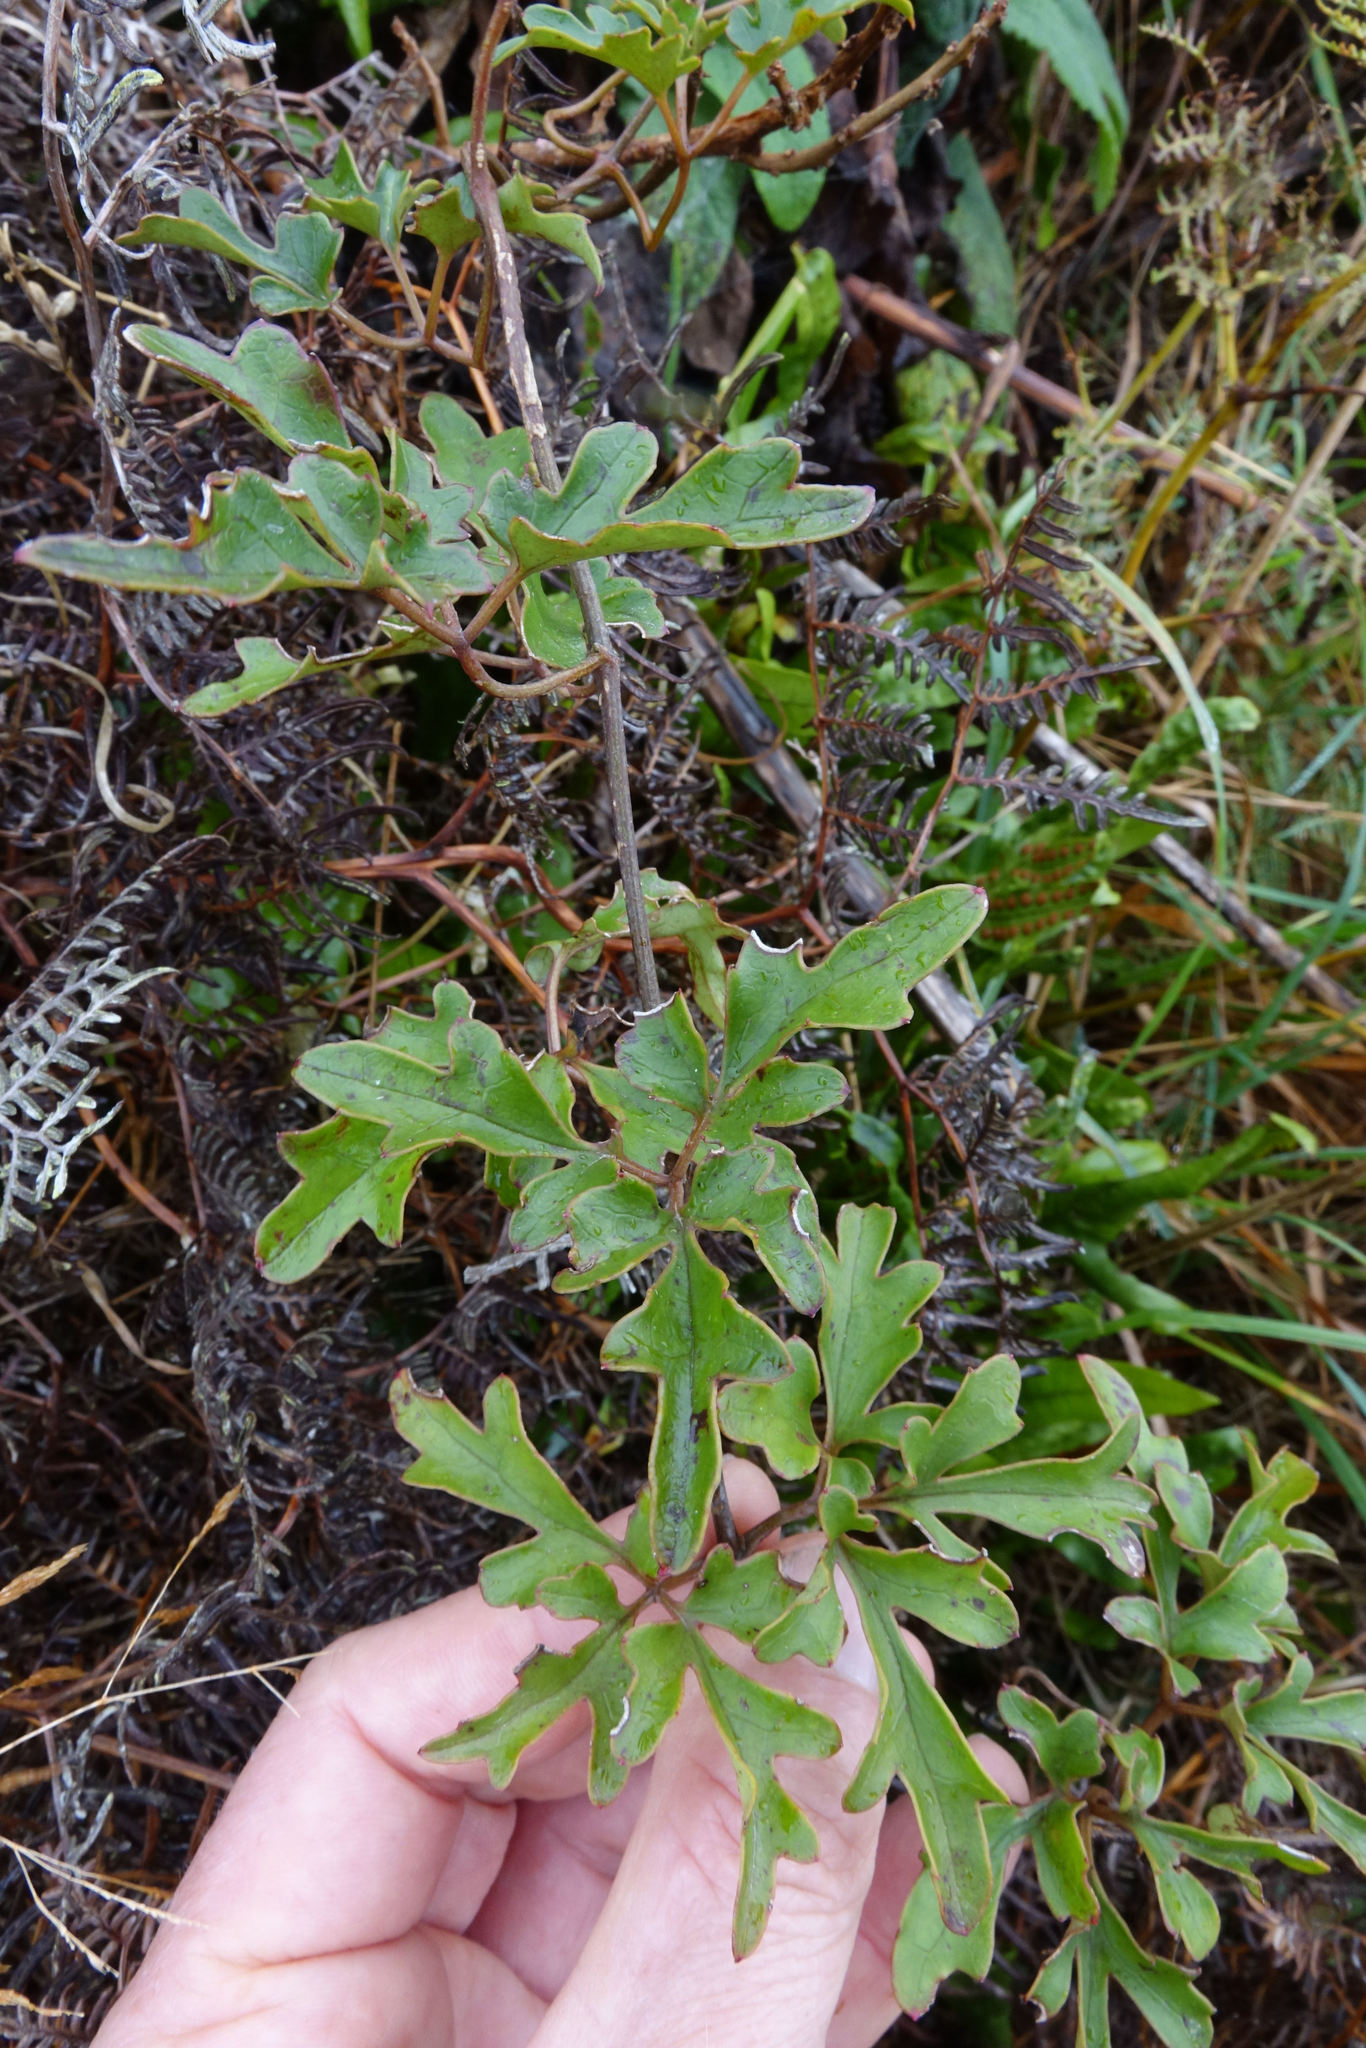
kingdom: Plantae
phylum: Tracheophyta
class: Magnoliopsida
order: Ranunculales
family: Ranunculaceae
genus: Clematis
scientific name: Clematis paniculata
